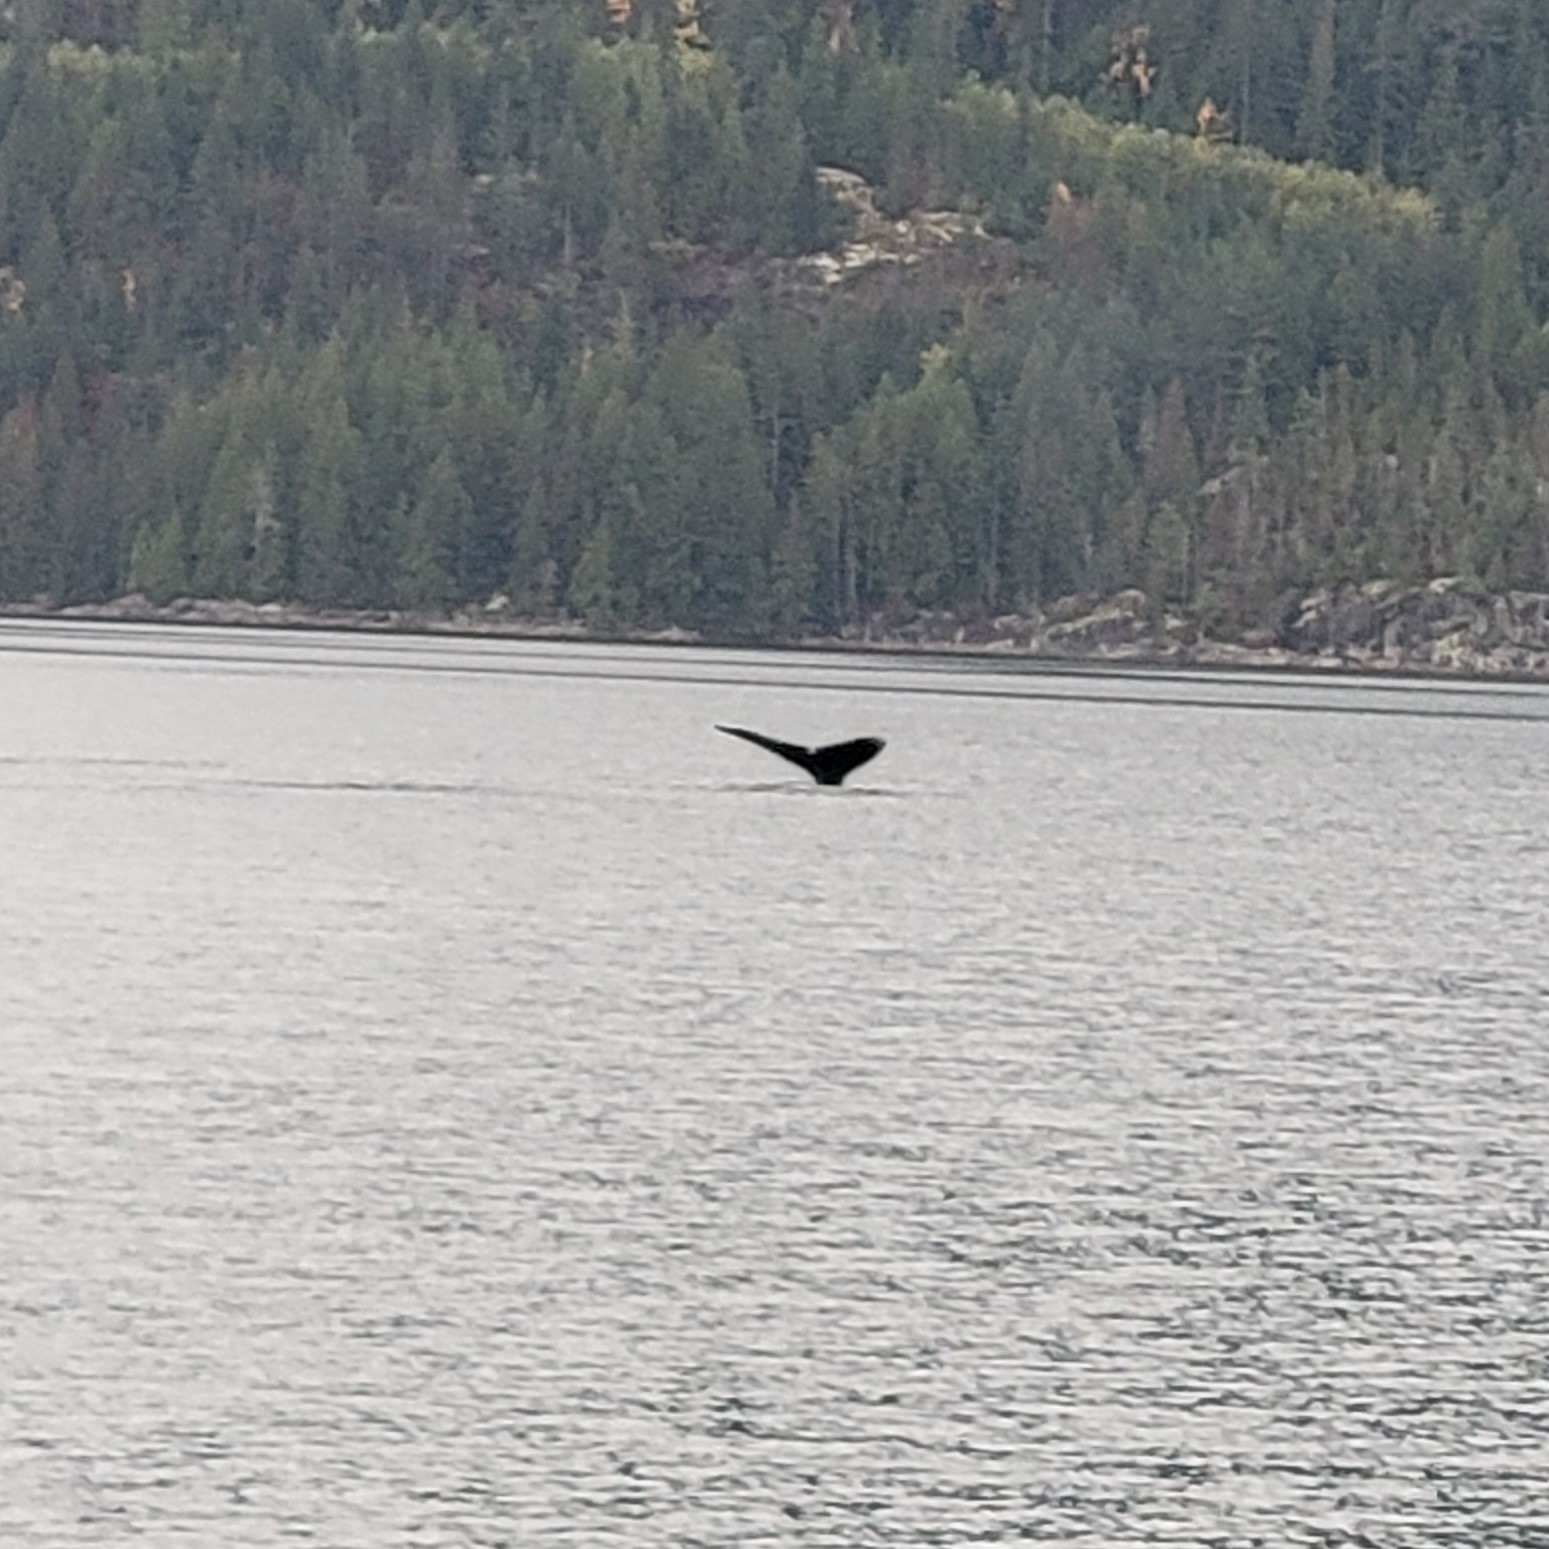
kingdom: Animalia
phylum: Chordata
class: Mammalia
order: Cetacea
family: Balaenopteridae
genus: Megaptera
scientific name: Megaptera novaeangliae
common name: Humpback whale
